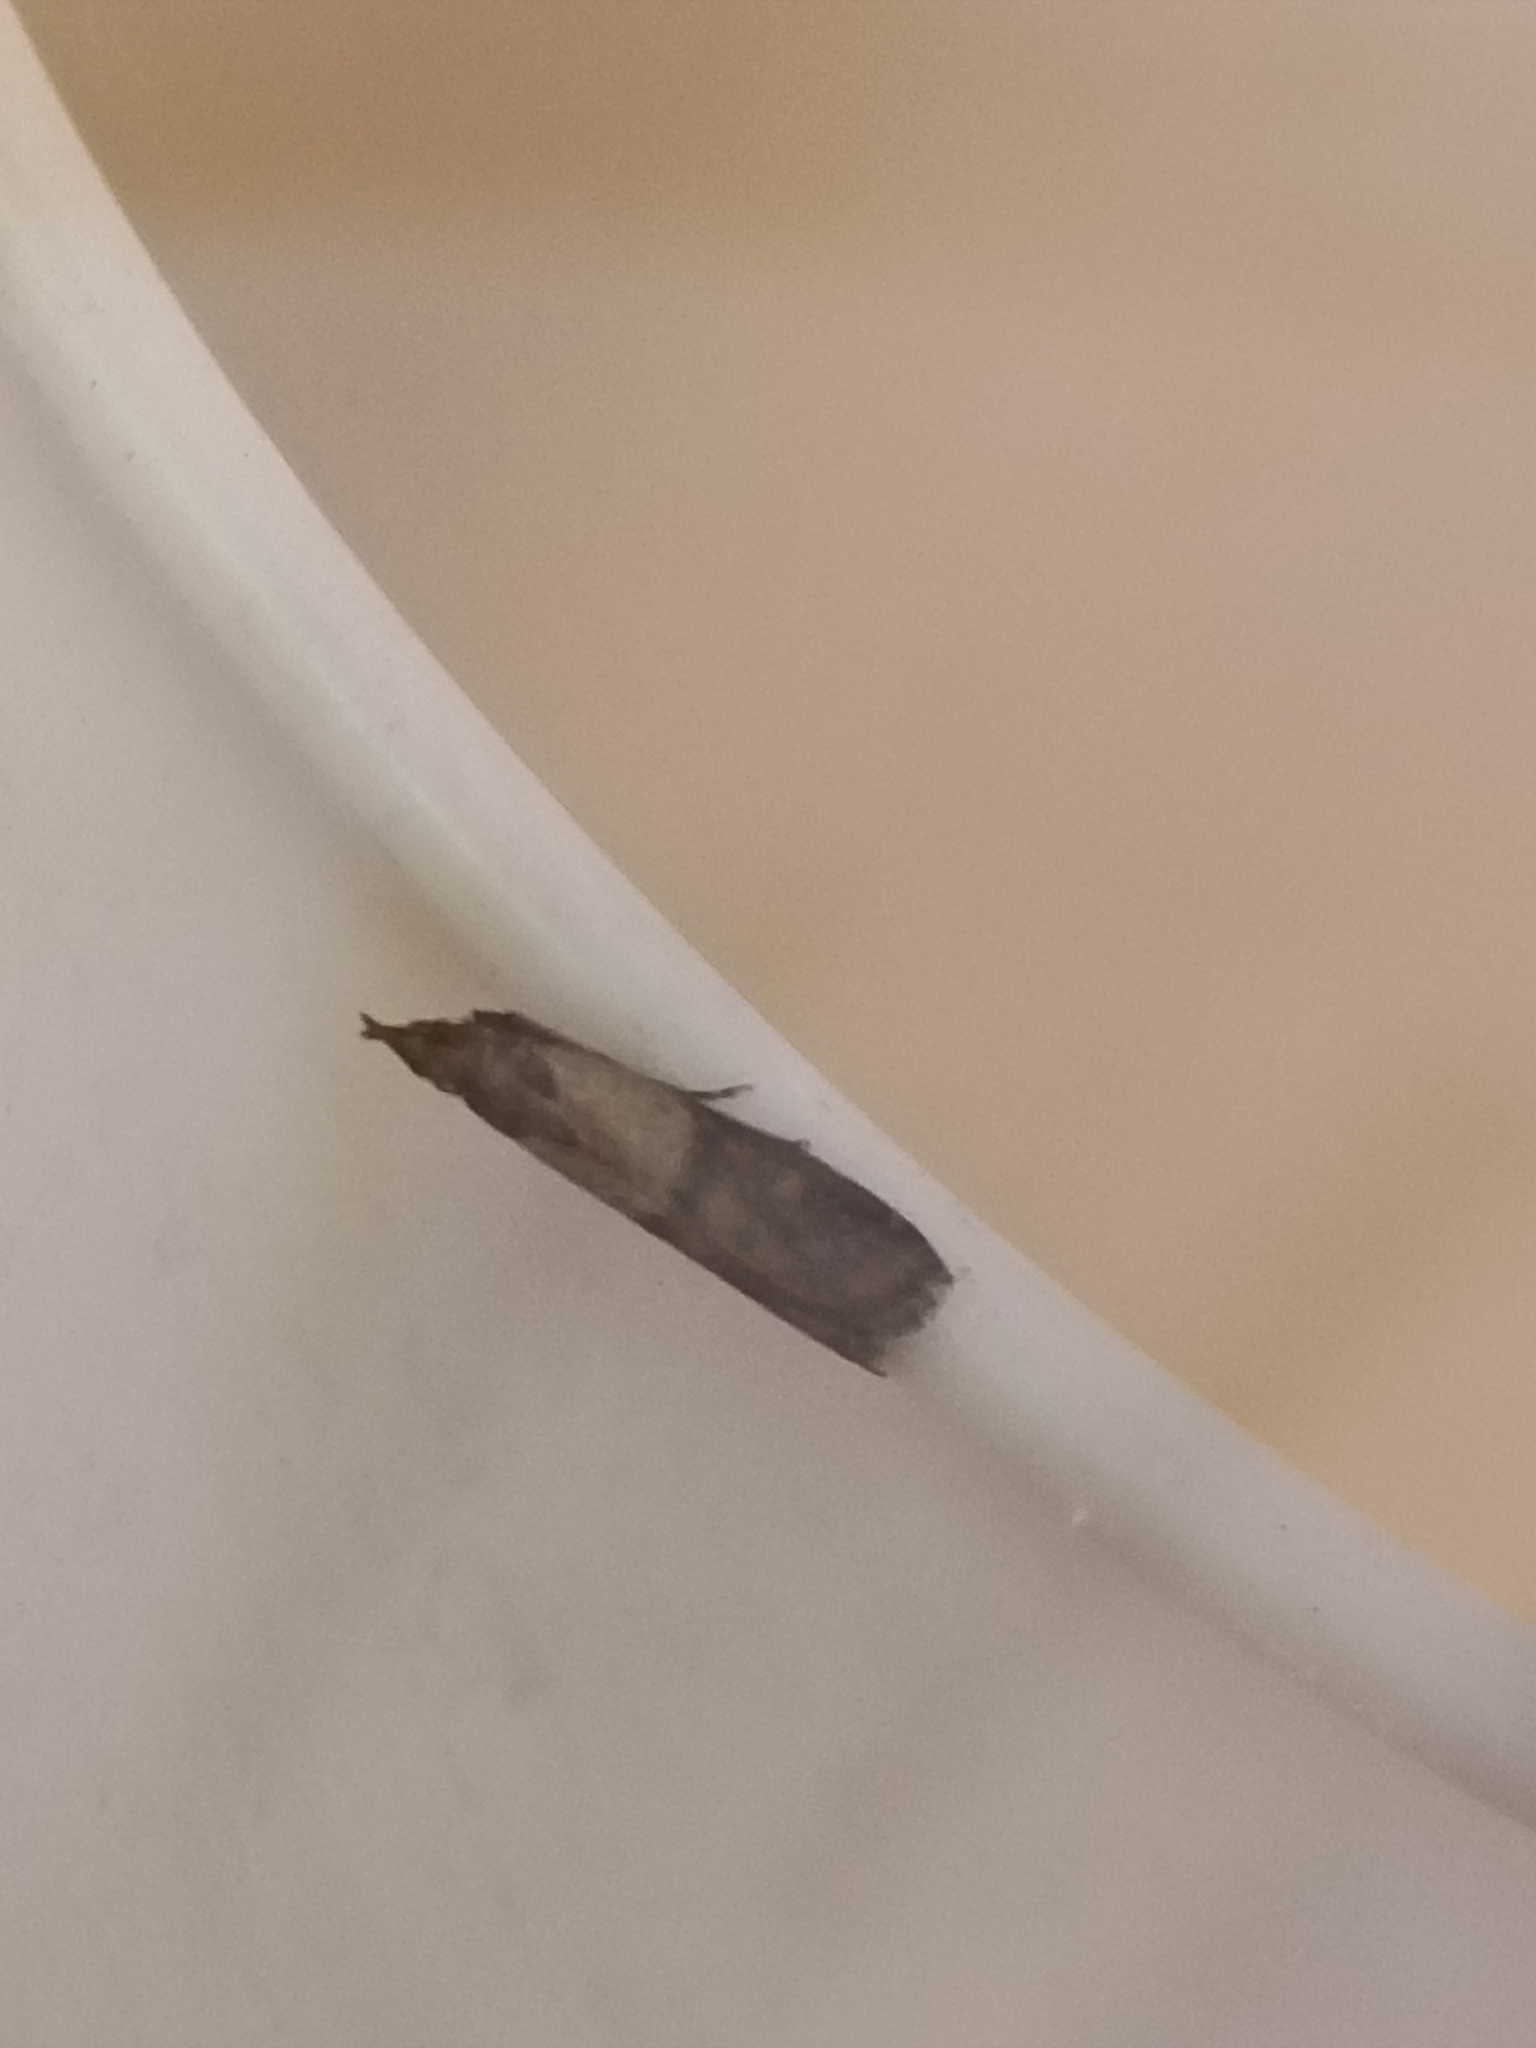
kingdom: Animalia
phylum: Arthropoda
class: Insecta
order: Lepidoptera
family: Pyralidae
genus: Plodia
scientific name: Plodia interpunctella
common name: Indian meal moth
